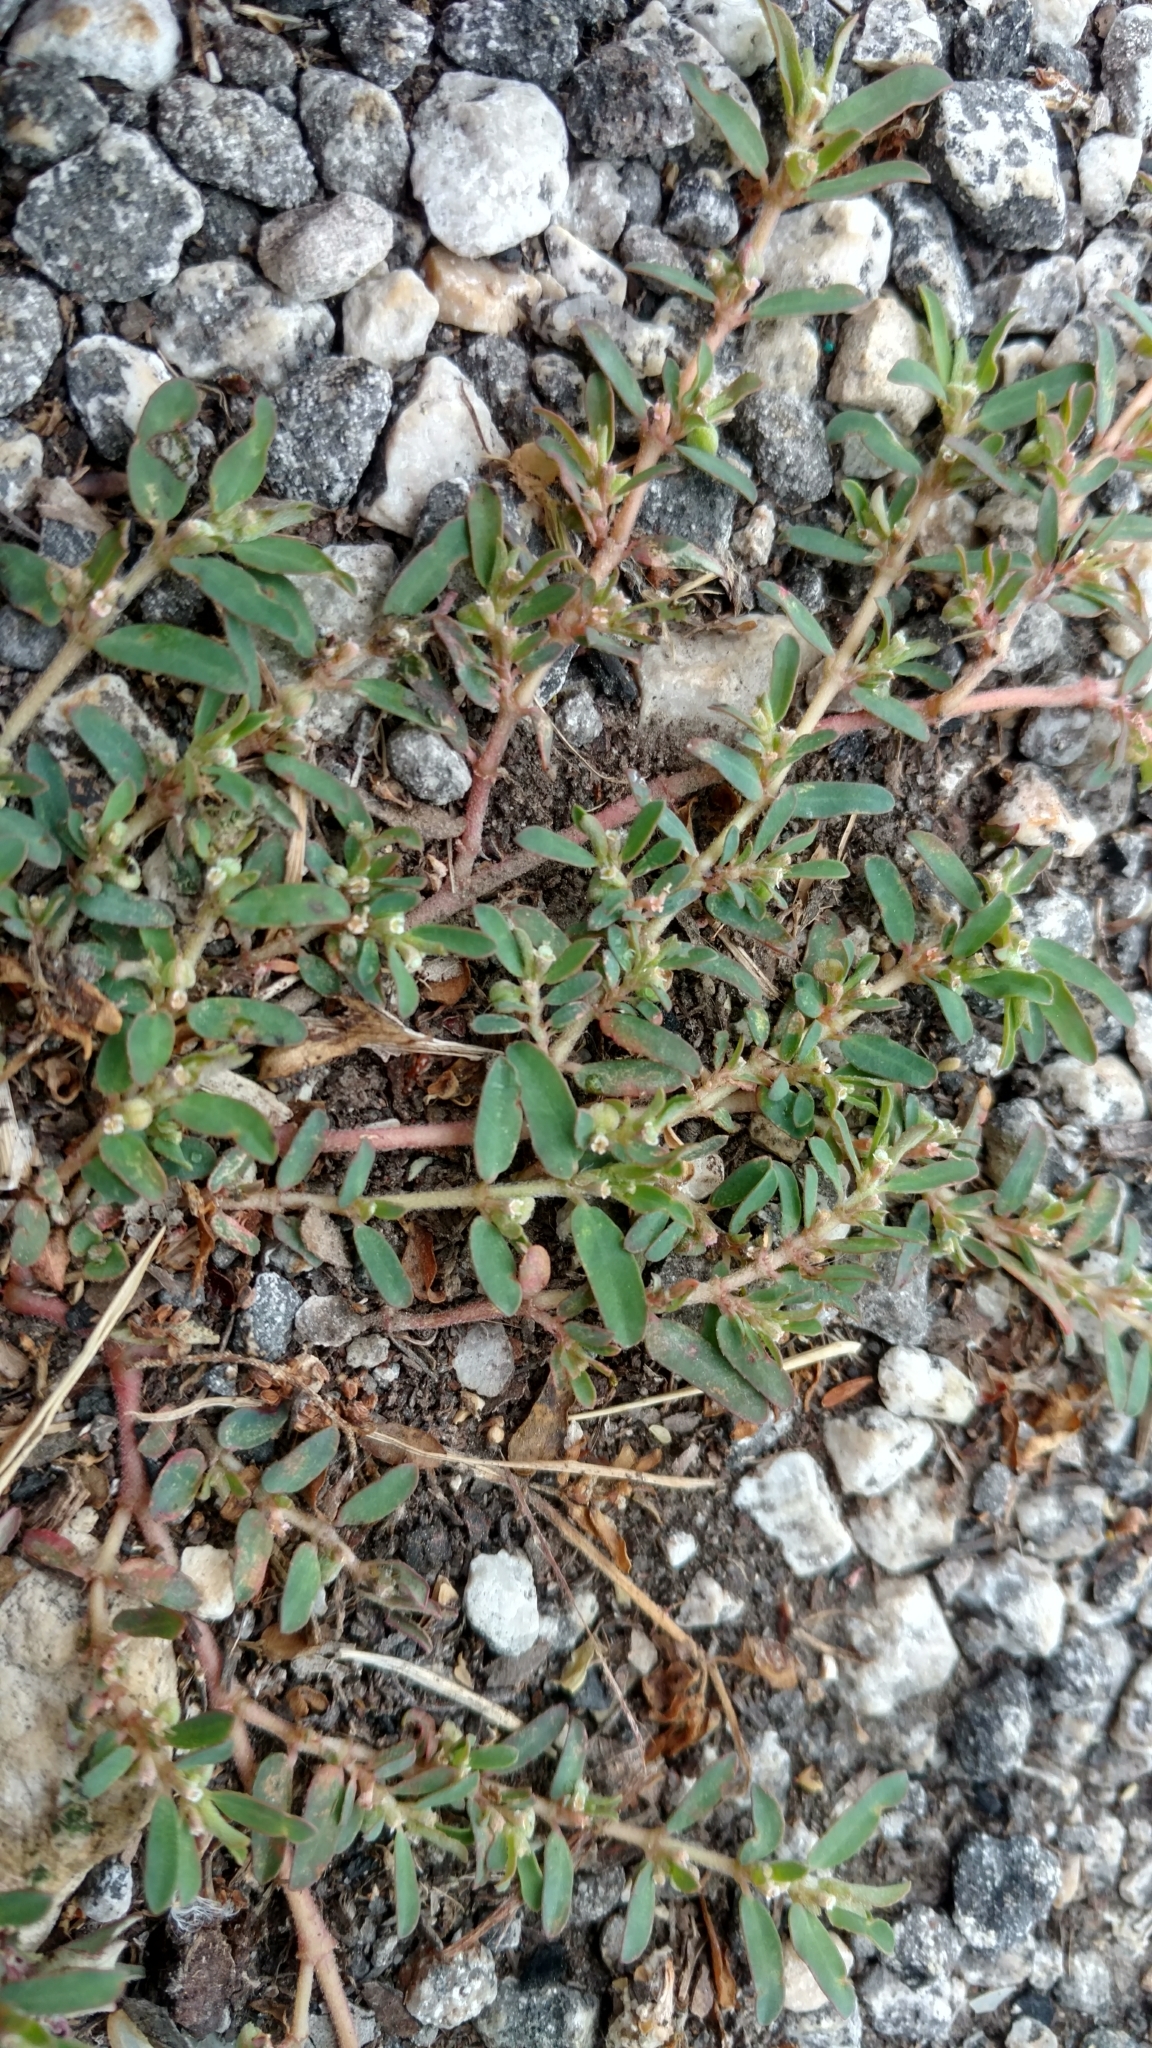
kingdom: Plantae
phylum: Tracheophyta
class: Magnoliopsida
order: Malpighiales
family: Euphorbiaceae
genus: Euphorbia
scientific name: Euphorbia maculata
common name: Spotted spurge
